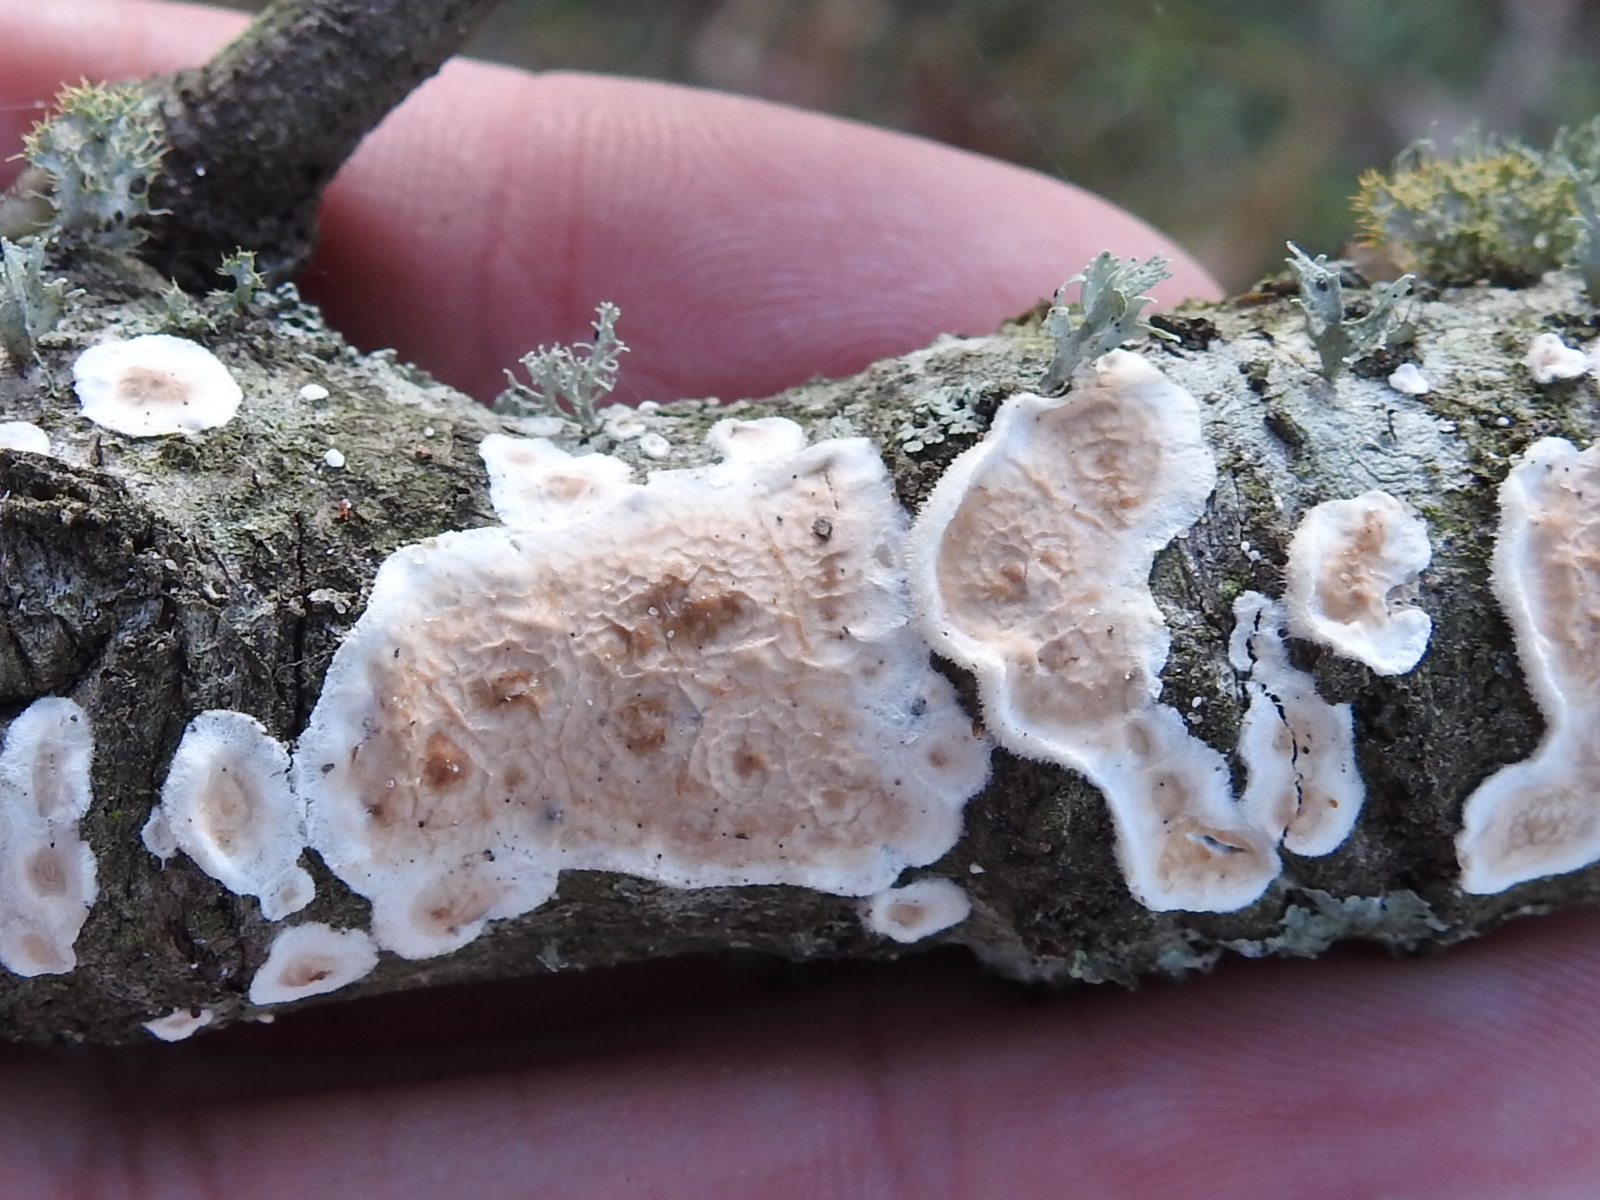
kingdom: Fungi
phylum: Basidiomycota
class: Agaricomycetes
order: Russulales
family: Peniophoraceae
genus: Peniophora
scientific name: Peniophora albobadia
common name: Giraffe spots
